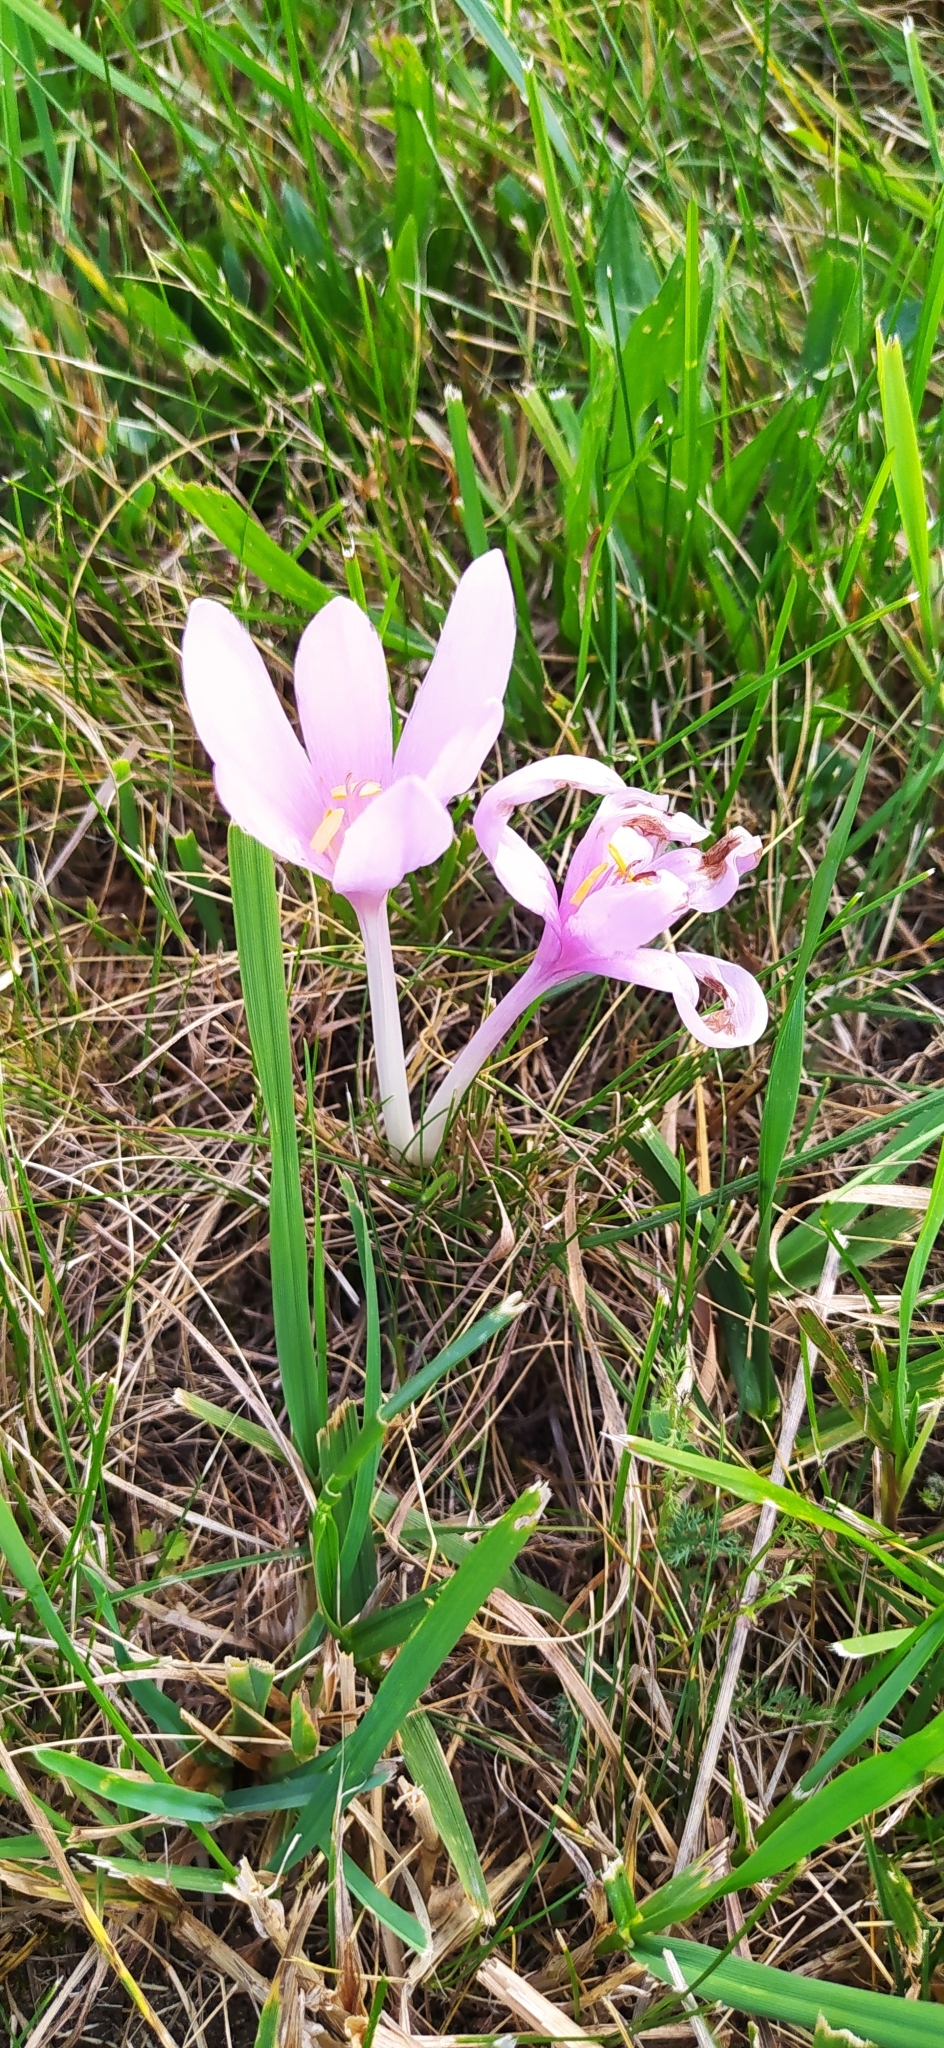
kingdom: Plantae
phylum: Tracheophyta
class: Liliopsida
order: Liliales
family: Colchicaceae
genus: Colchicum
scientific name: Colchicum autumnale
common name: Autumn crocus
